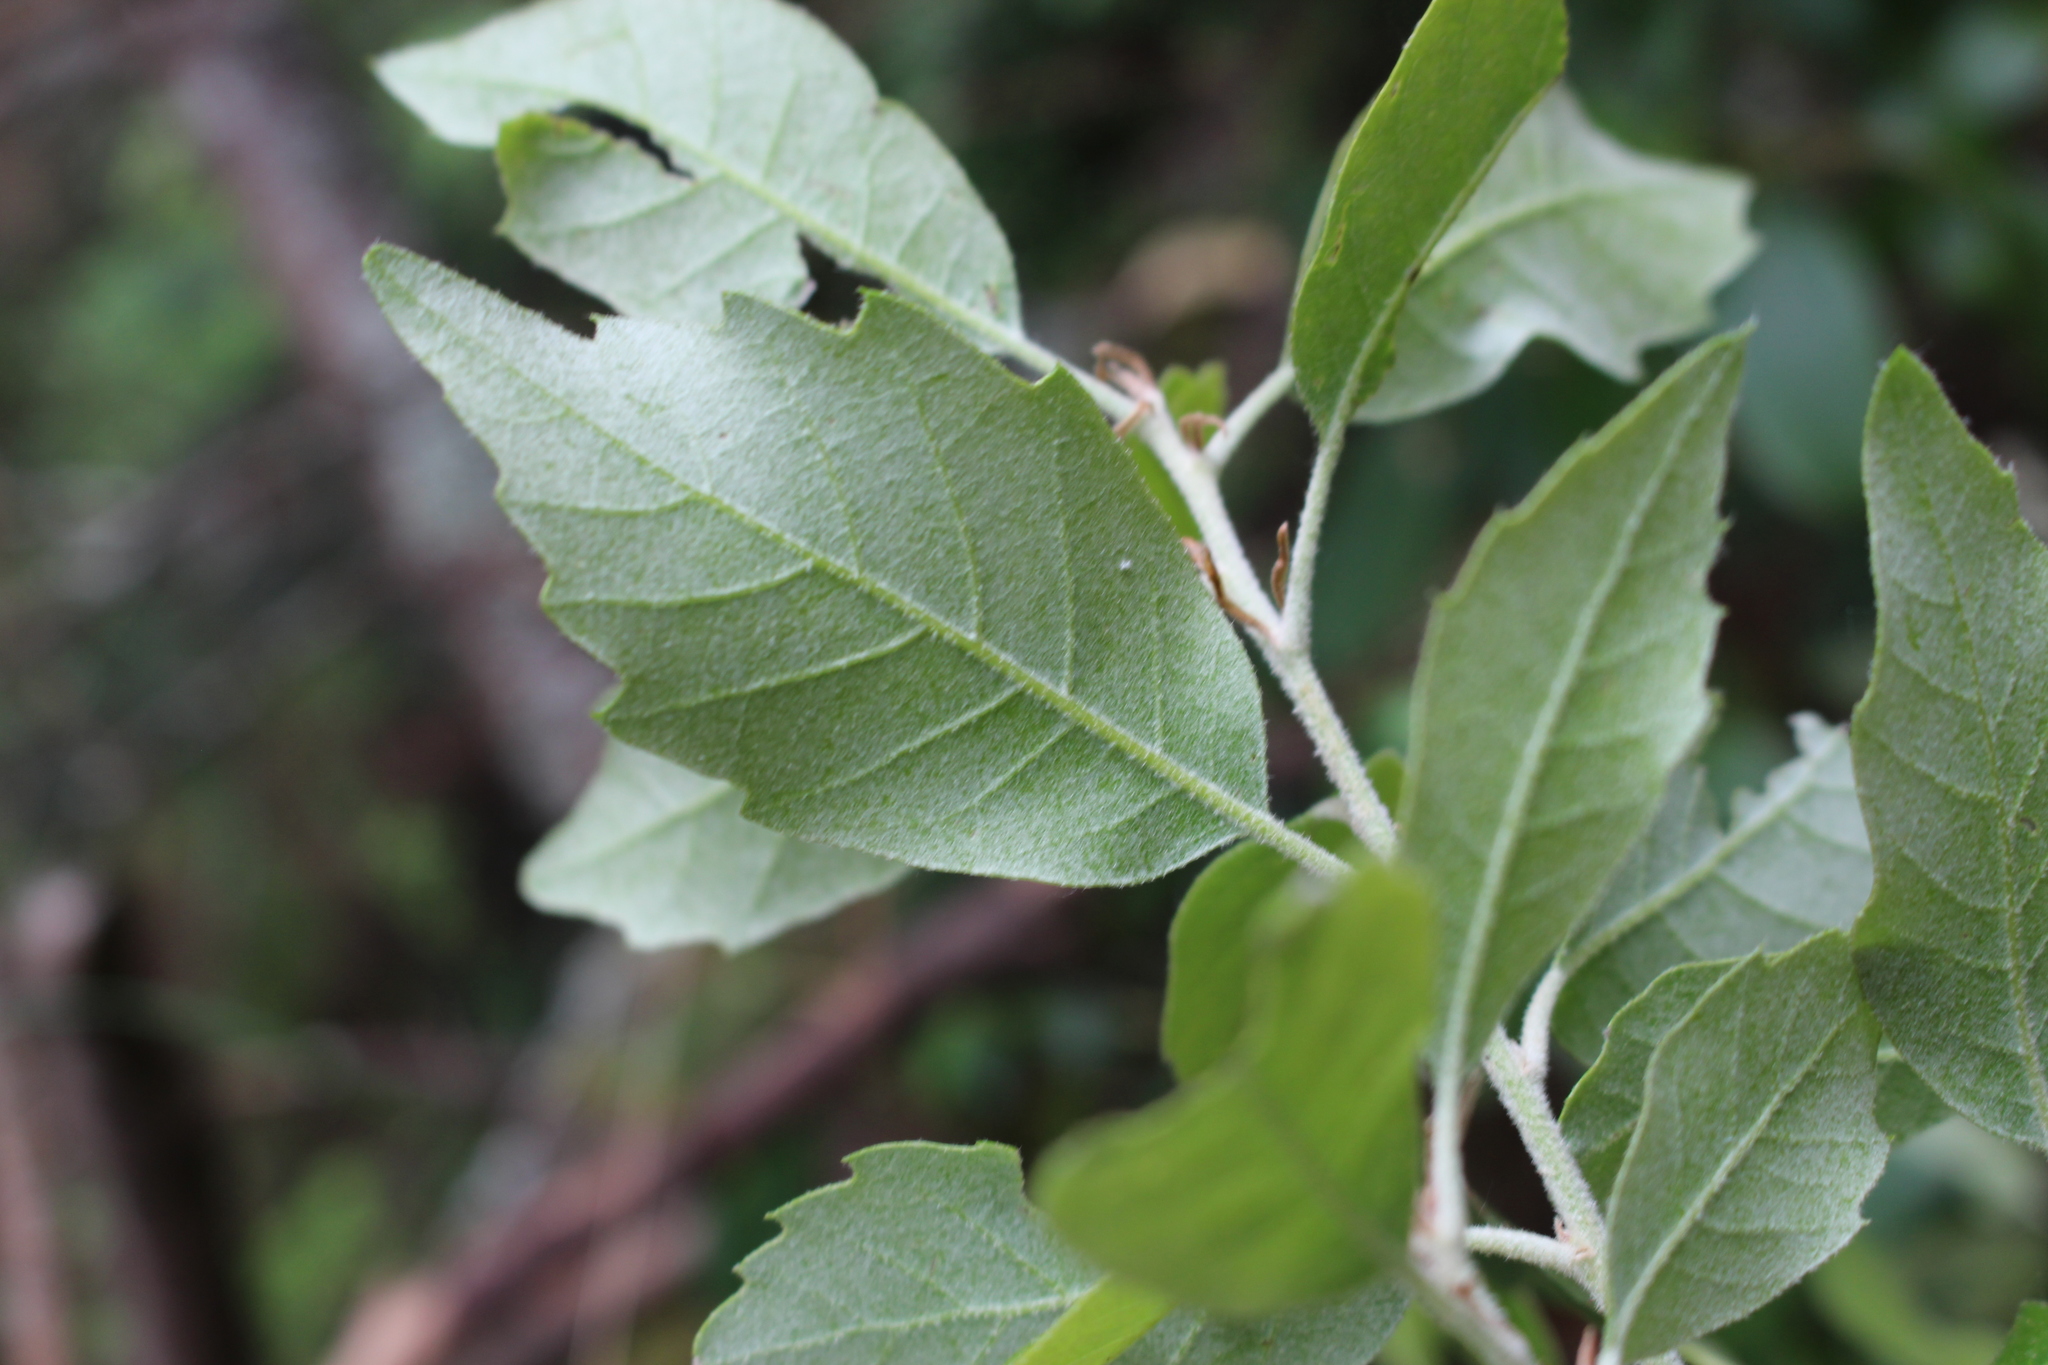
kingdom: Plantae
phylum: Tracheophyta
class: Magnoliopsida
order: Fagales
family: Fagaceae
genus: Quercus
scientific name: Quercus ilex
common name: Evergreen oak
